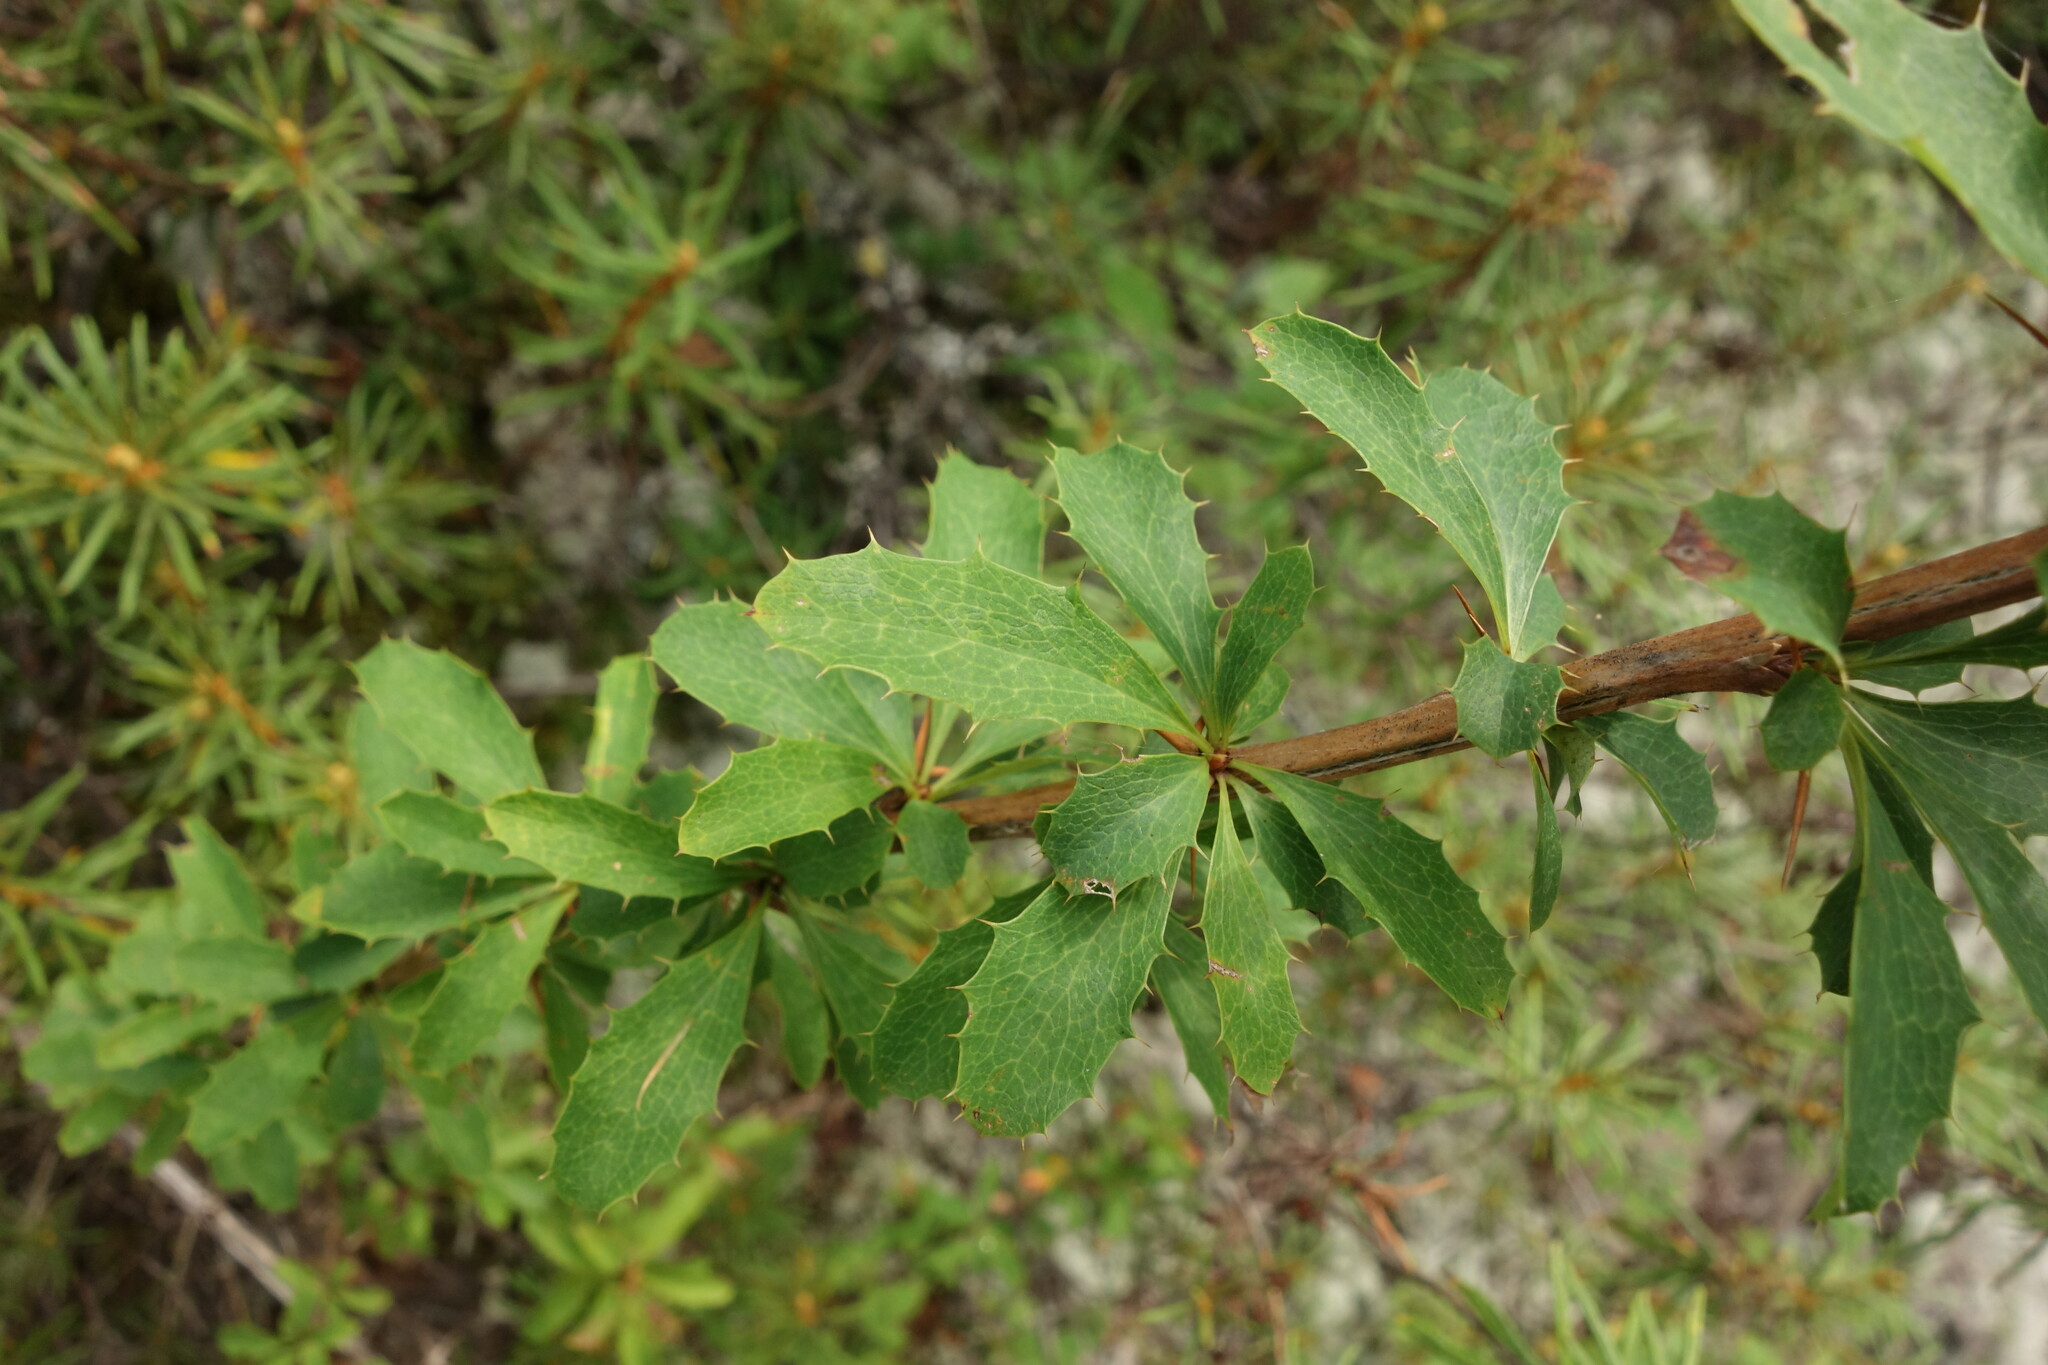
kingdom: Plantae
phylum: Tracheophyta
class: Magnoliopsida
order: Ranunculales
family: Berberidaceae
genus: Berberis
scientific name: Berberis sibirica
